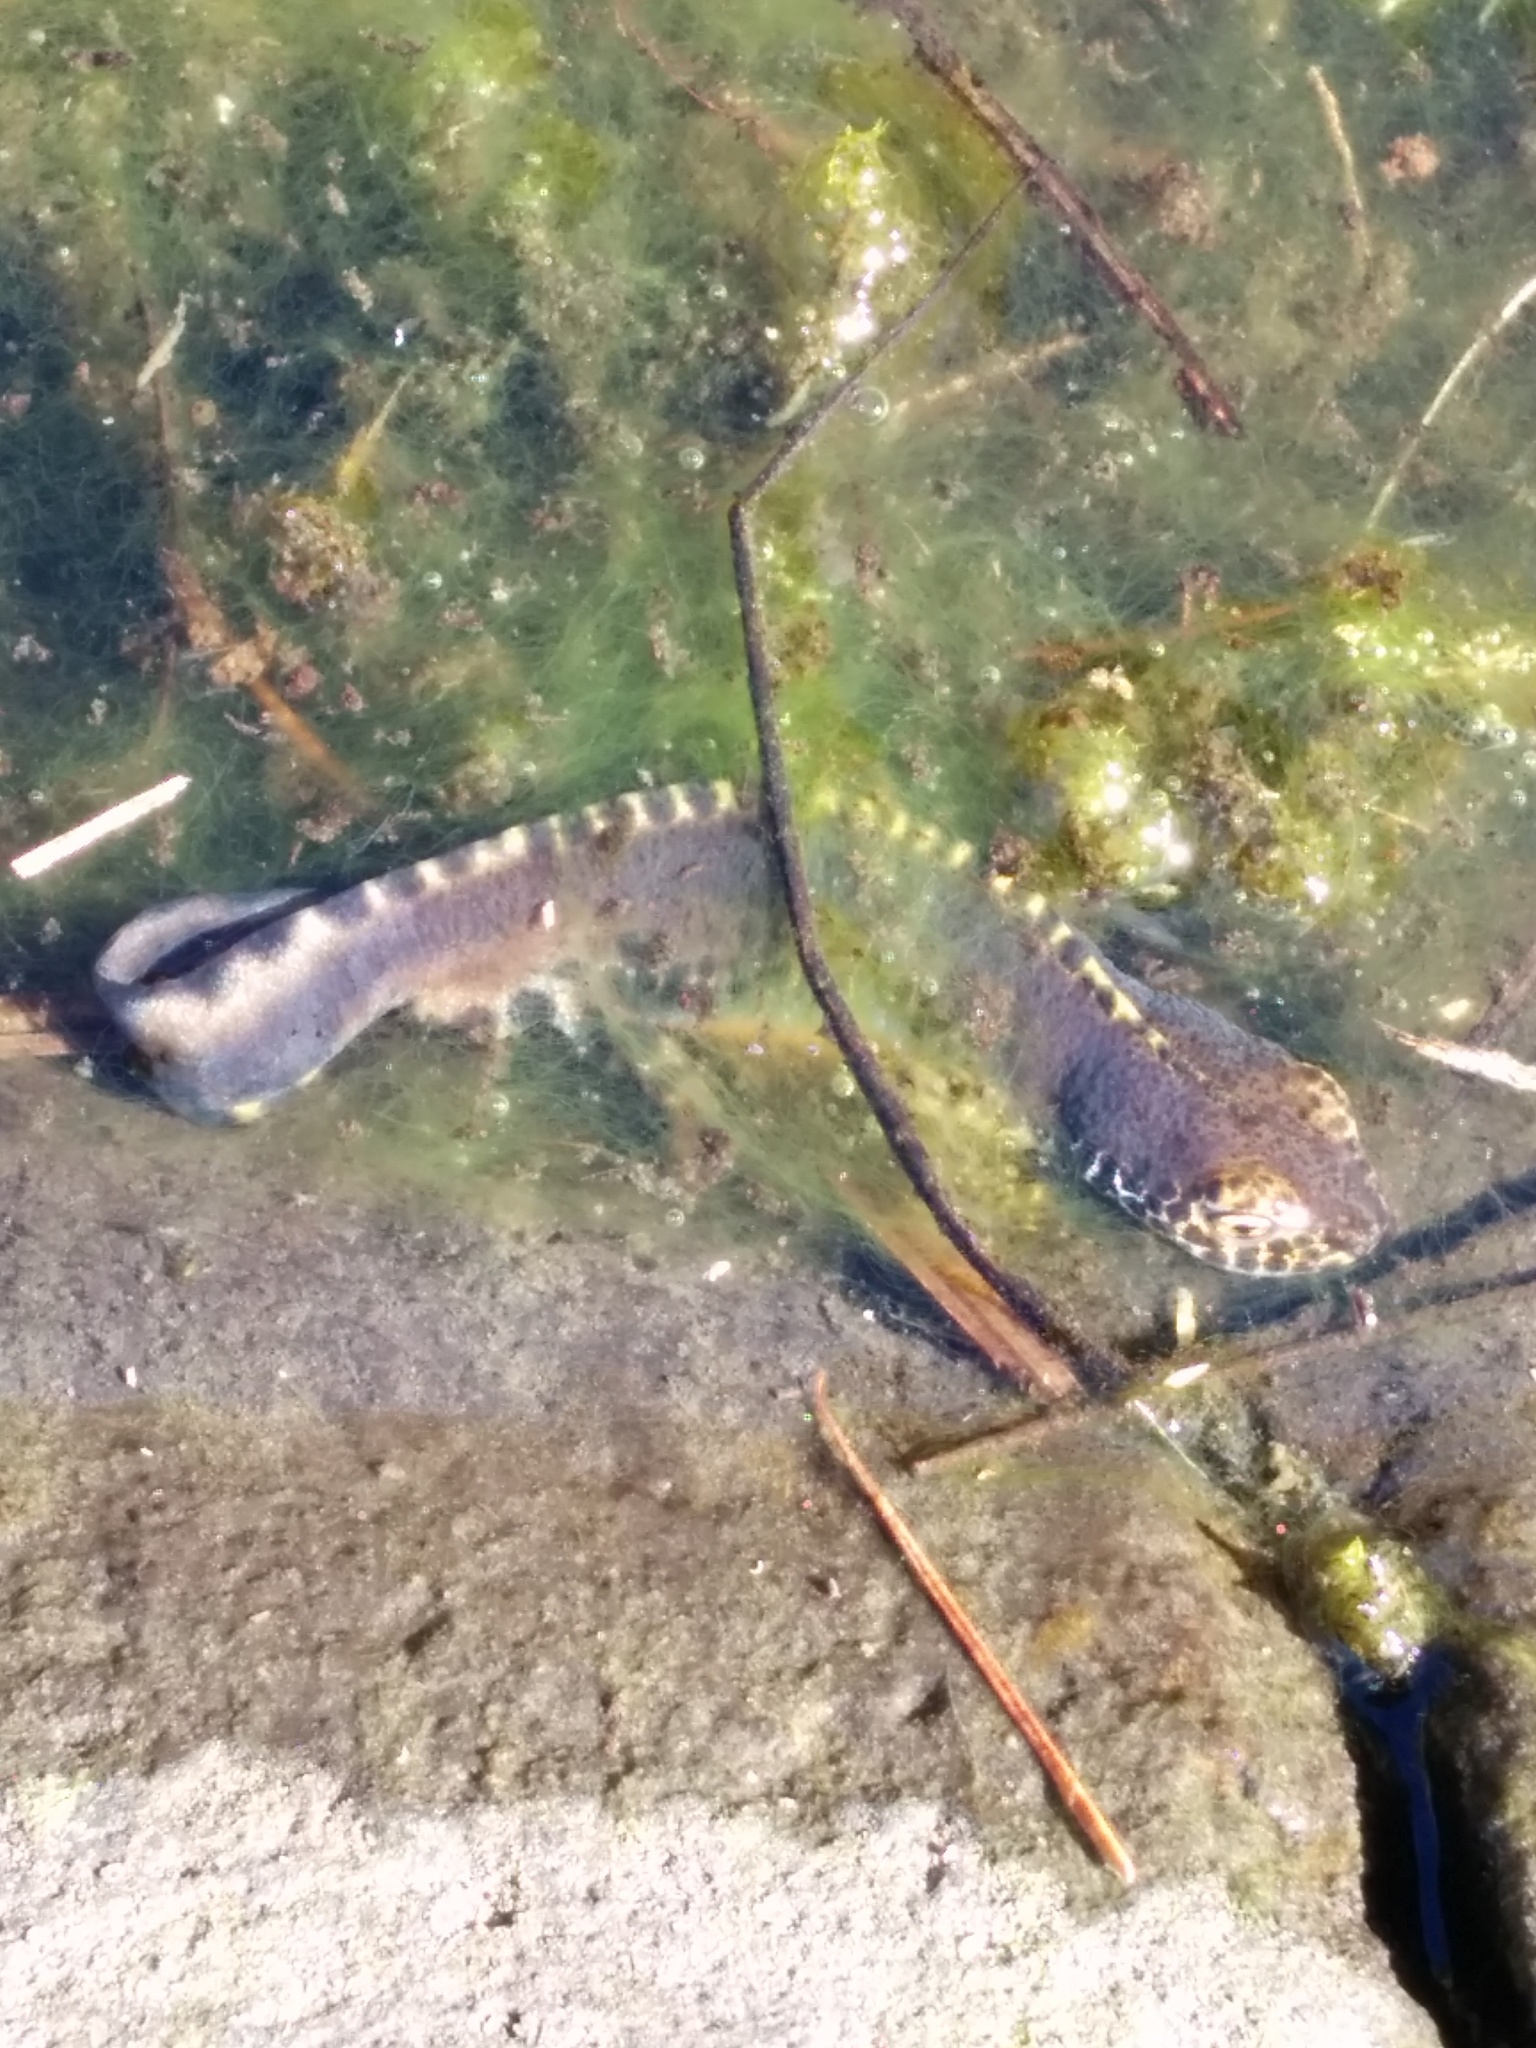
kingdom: Animalia
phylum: Chordata
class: Amphibia
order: Caudata
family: Salamandridae
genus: Ichthyosaura
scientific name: Ichthyosaura alpestris
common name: Alpine newt
